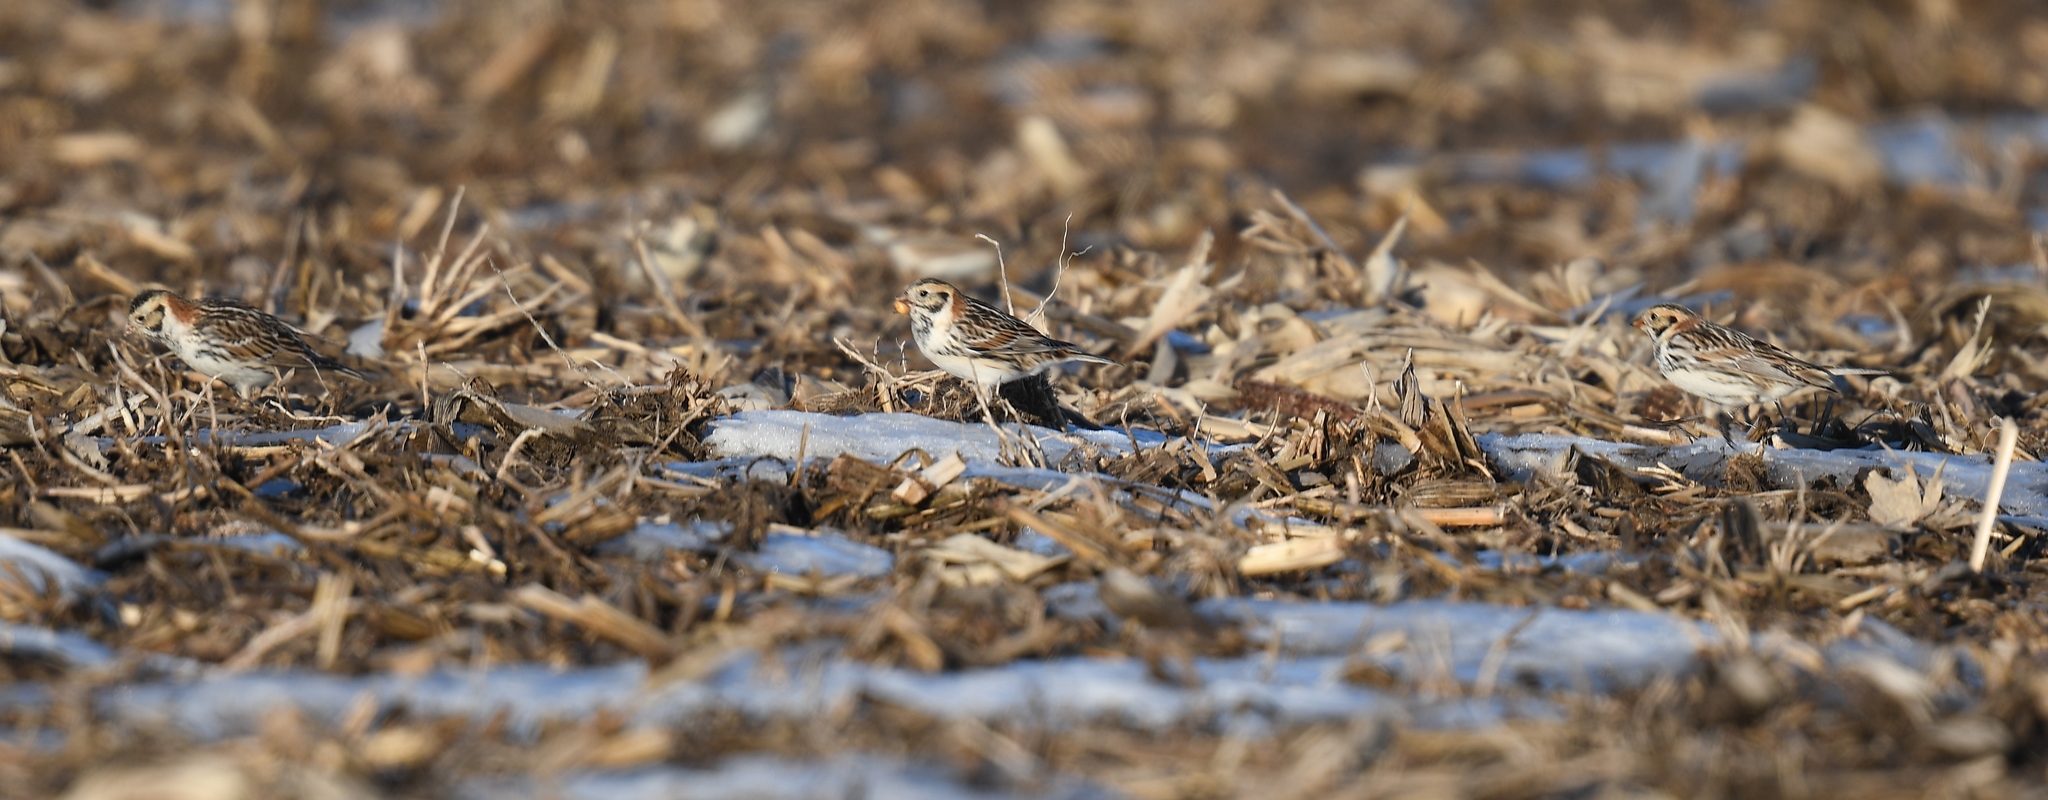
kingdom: Animalia
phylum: Chordata
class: Aves
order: Passeriformes
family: Calcariidae
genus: Calcarius
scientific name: Calcarius lapponicus
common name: Lapland longspur
